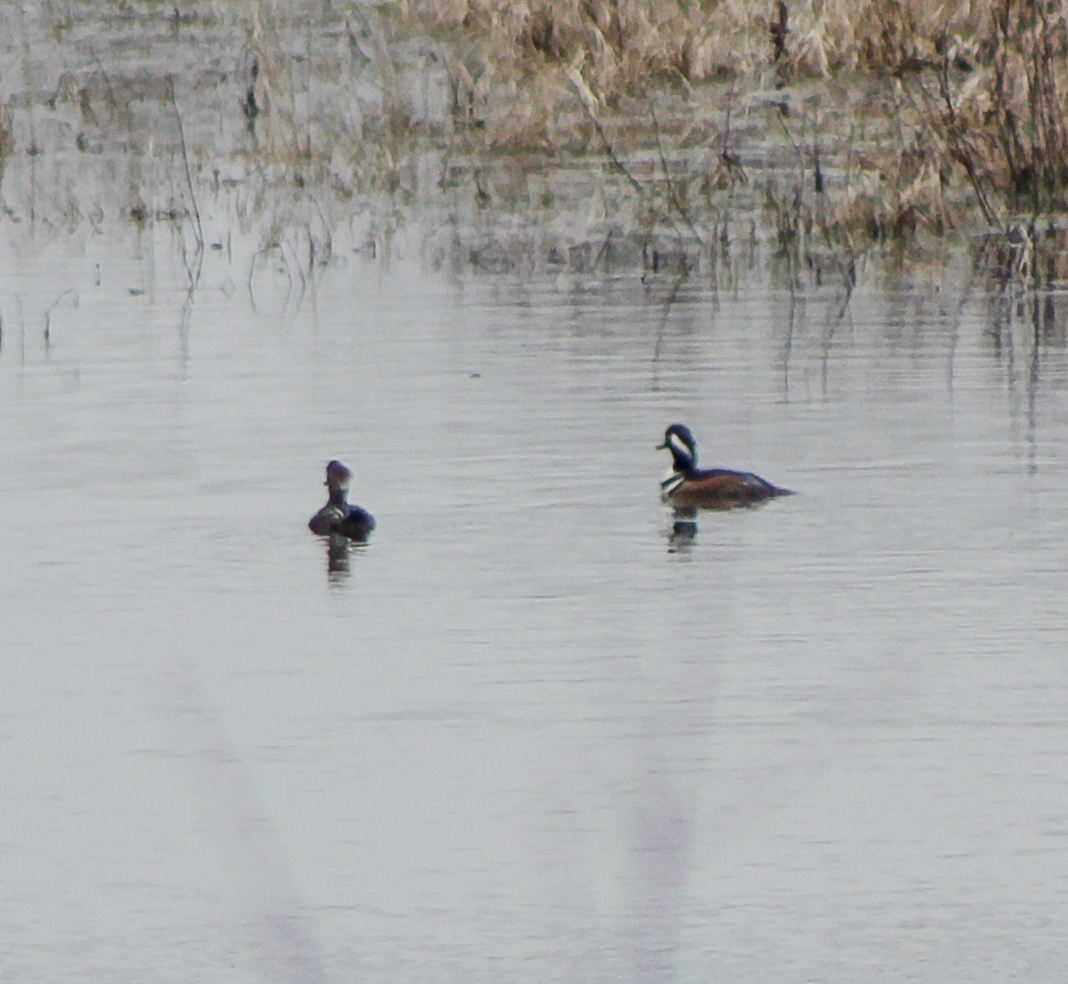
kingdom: Animalia
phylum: Chordata
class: Aves
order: Anseriformes
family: Anatidae
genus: Lophodytes
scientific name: Lophodytes cucullatus
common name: Hooded merganser
